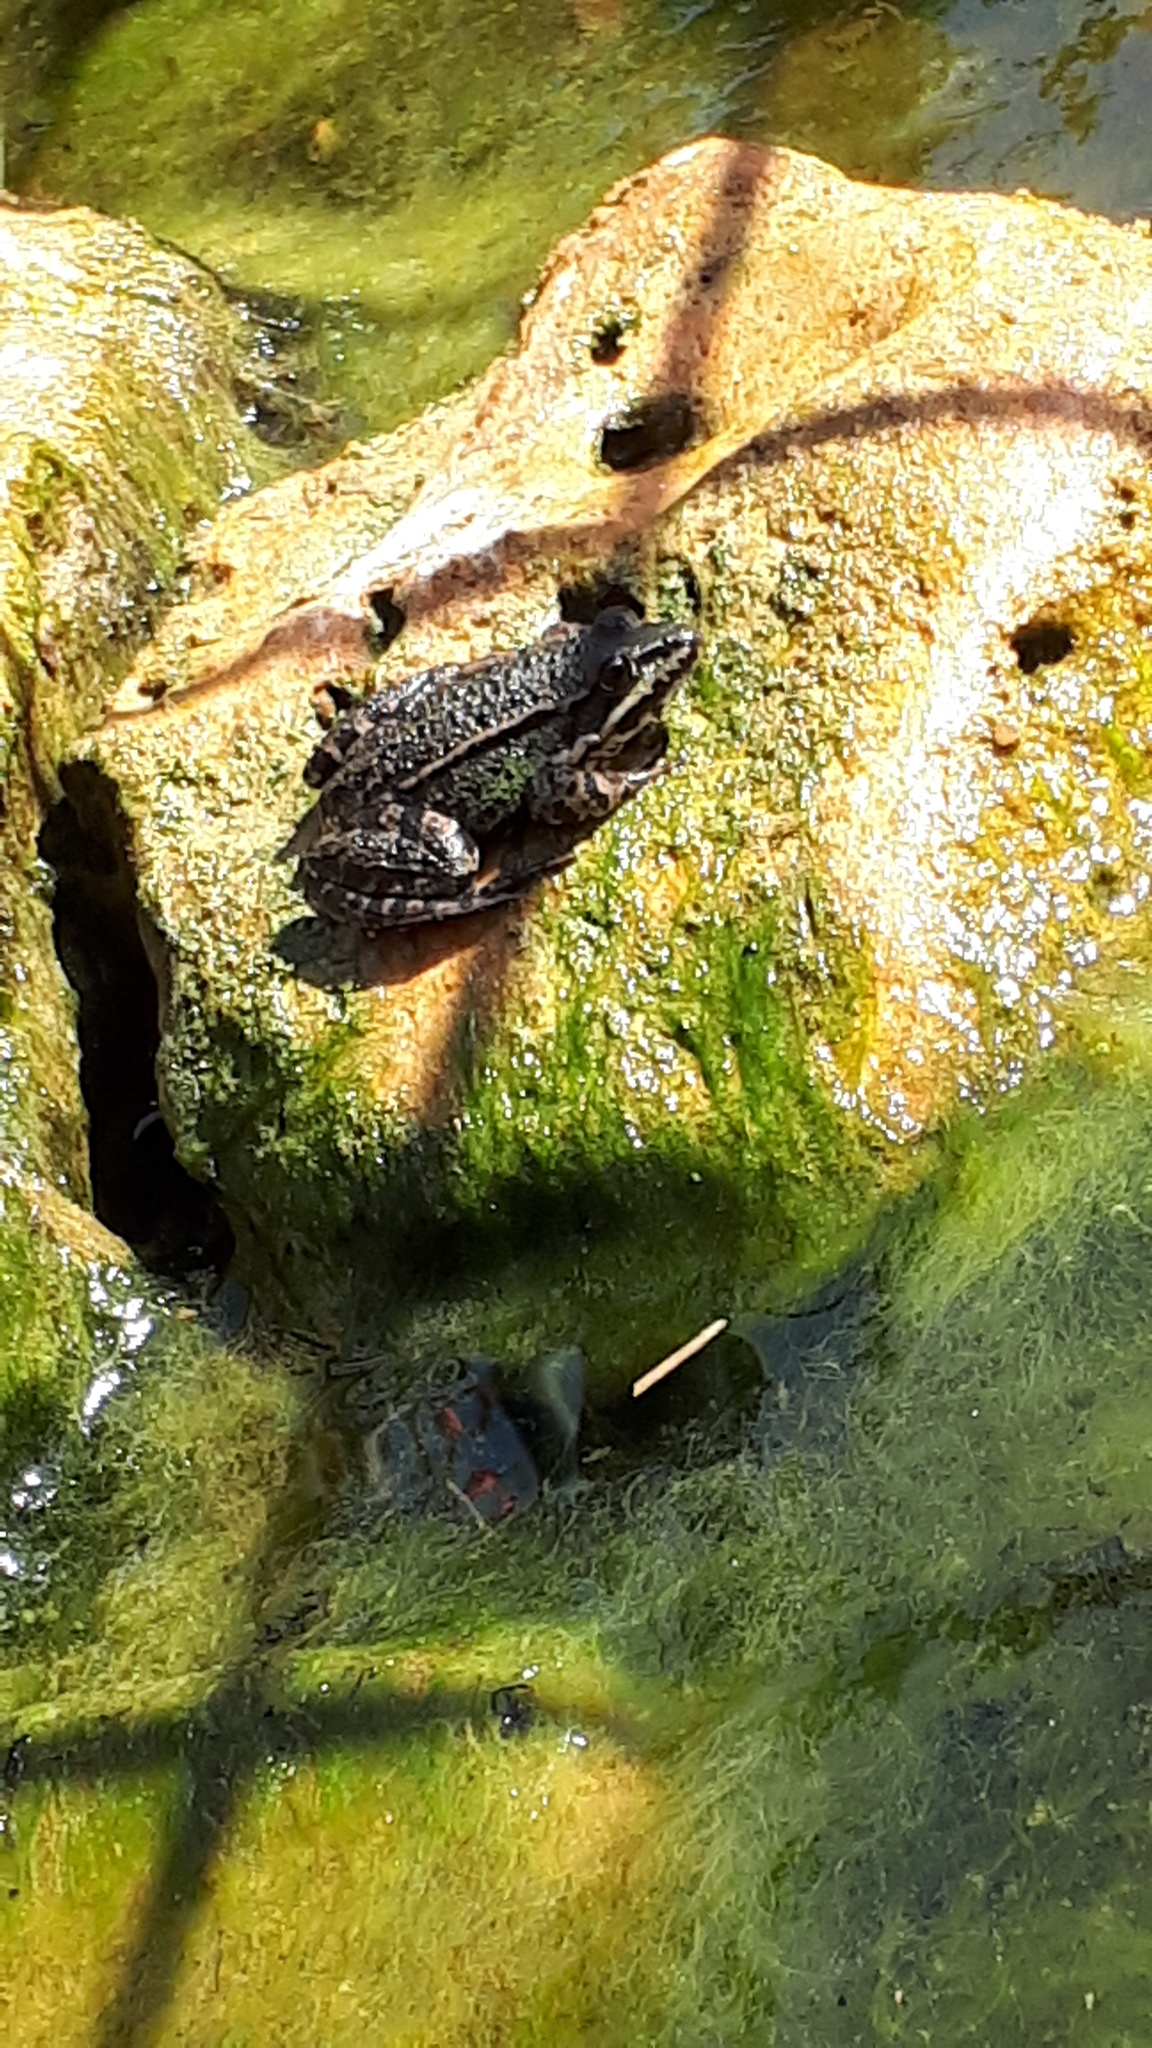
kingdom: Animalia
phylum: Chordata
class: Amphibia
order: Anura
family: Ranidae
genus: Pelophylax
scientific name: Pelophylax
